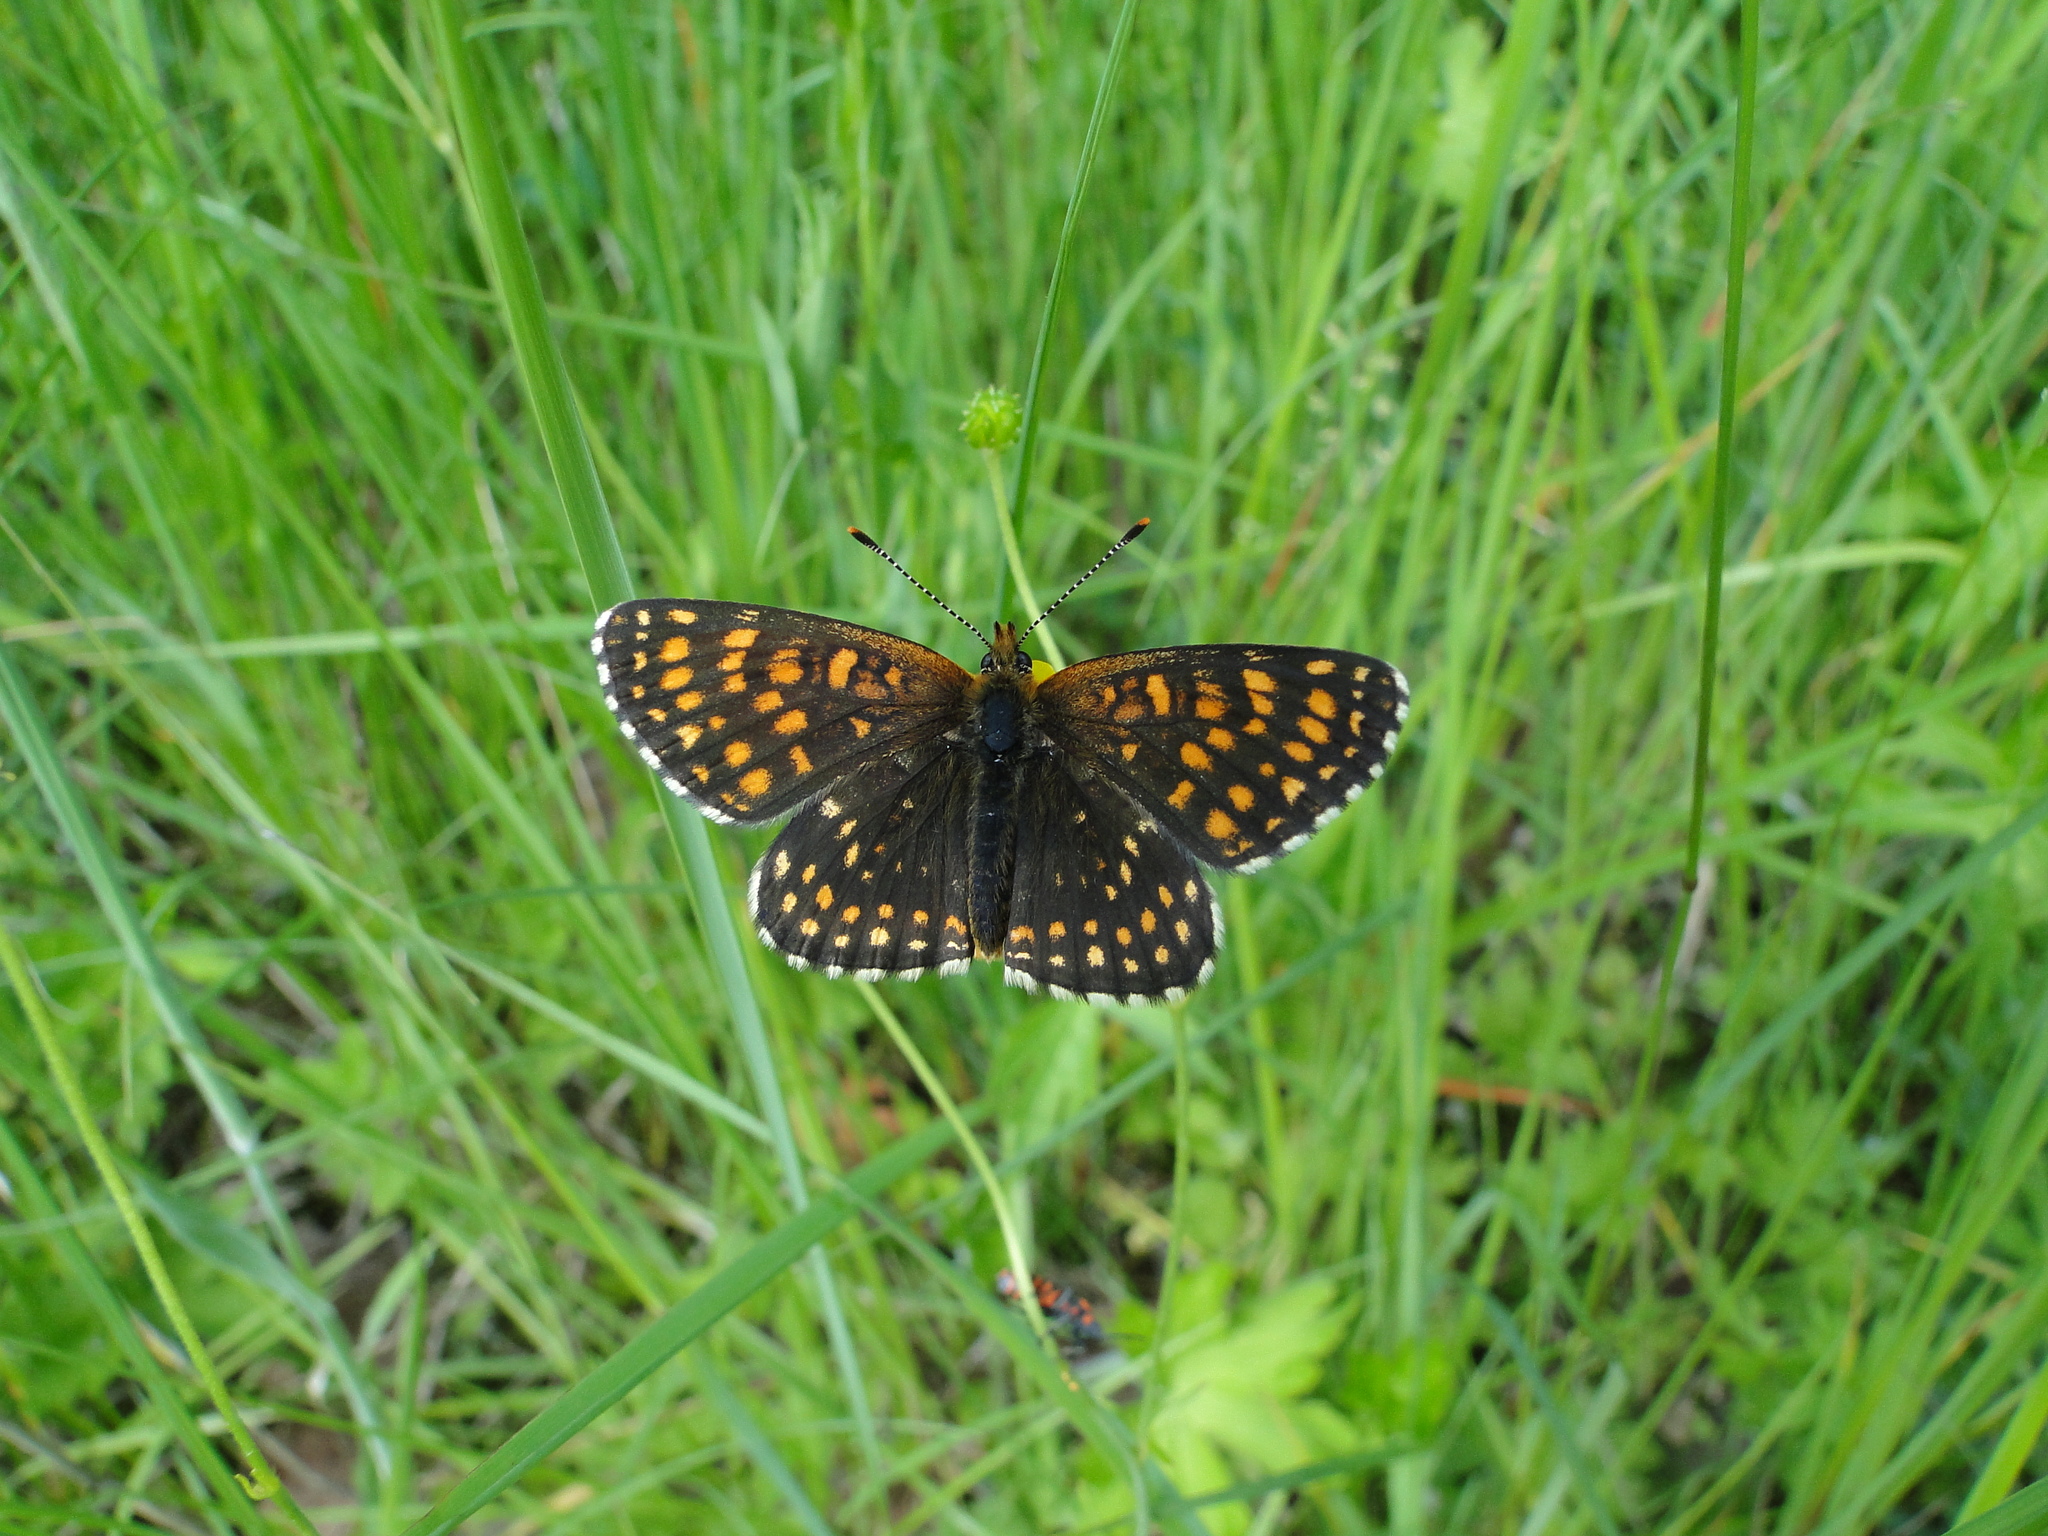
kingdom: Animalia
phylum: Arthropoda
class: Insecta
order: Lepidoptera
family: Nymphalidae
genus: Melitaea
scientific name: Melitaea diamina
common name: False heath fritillary
